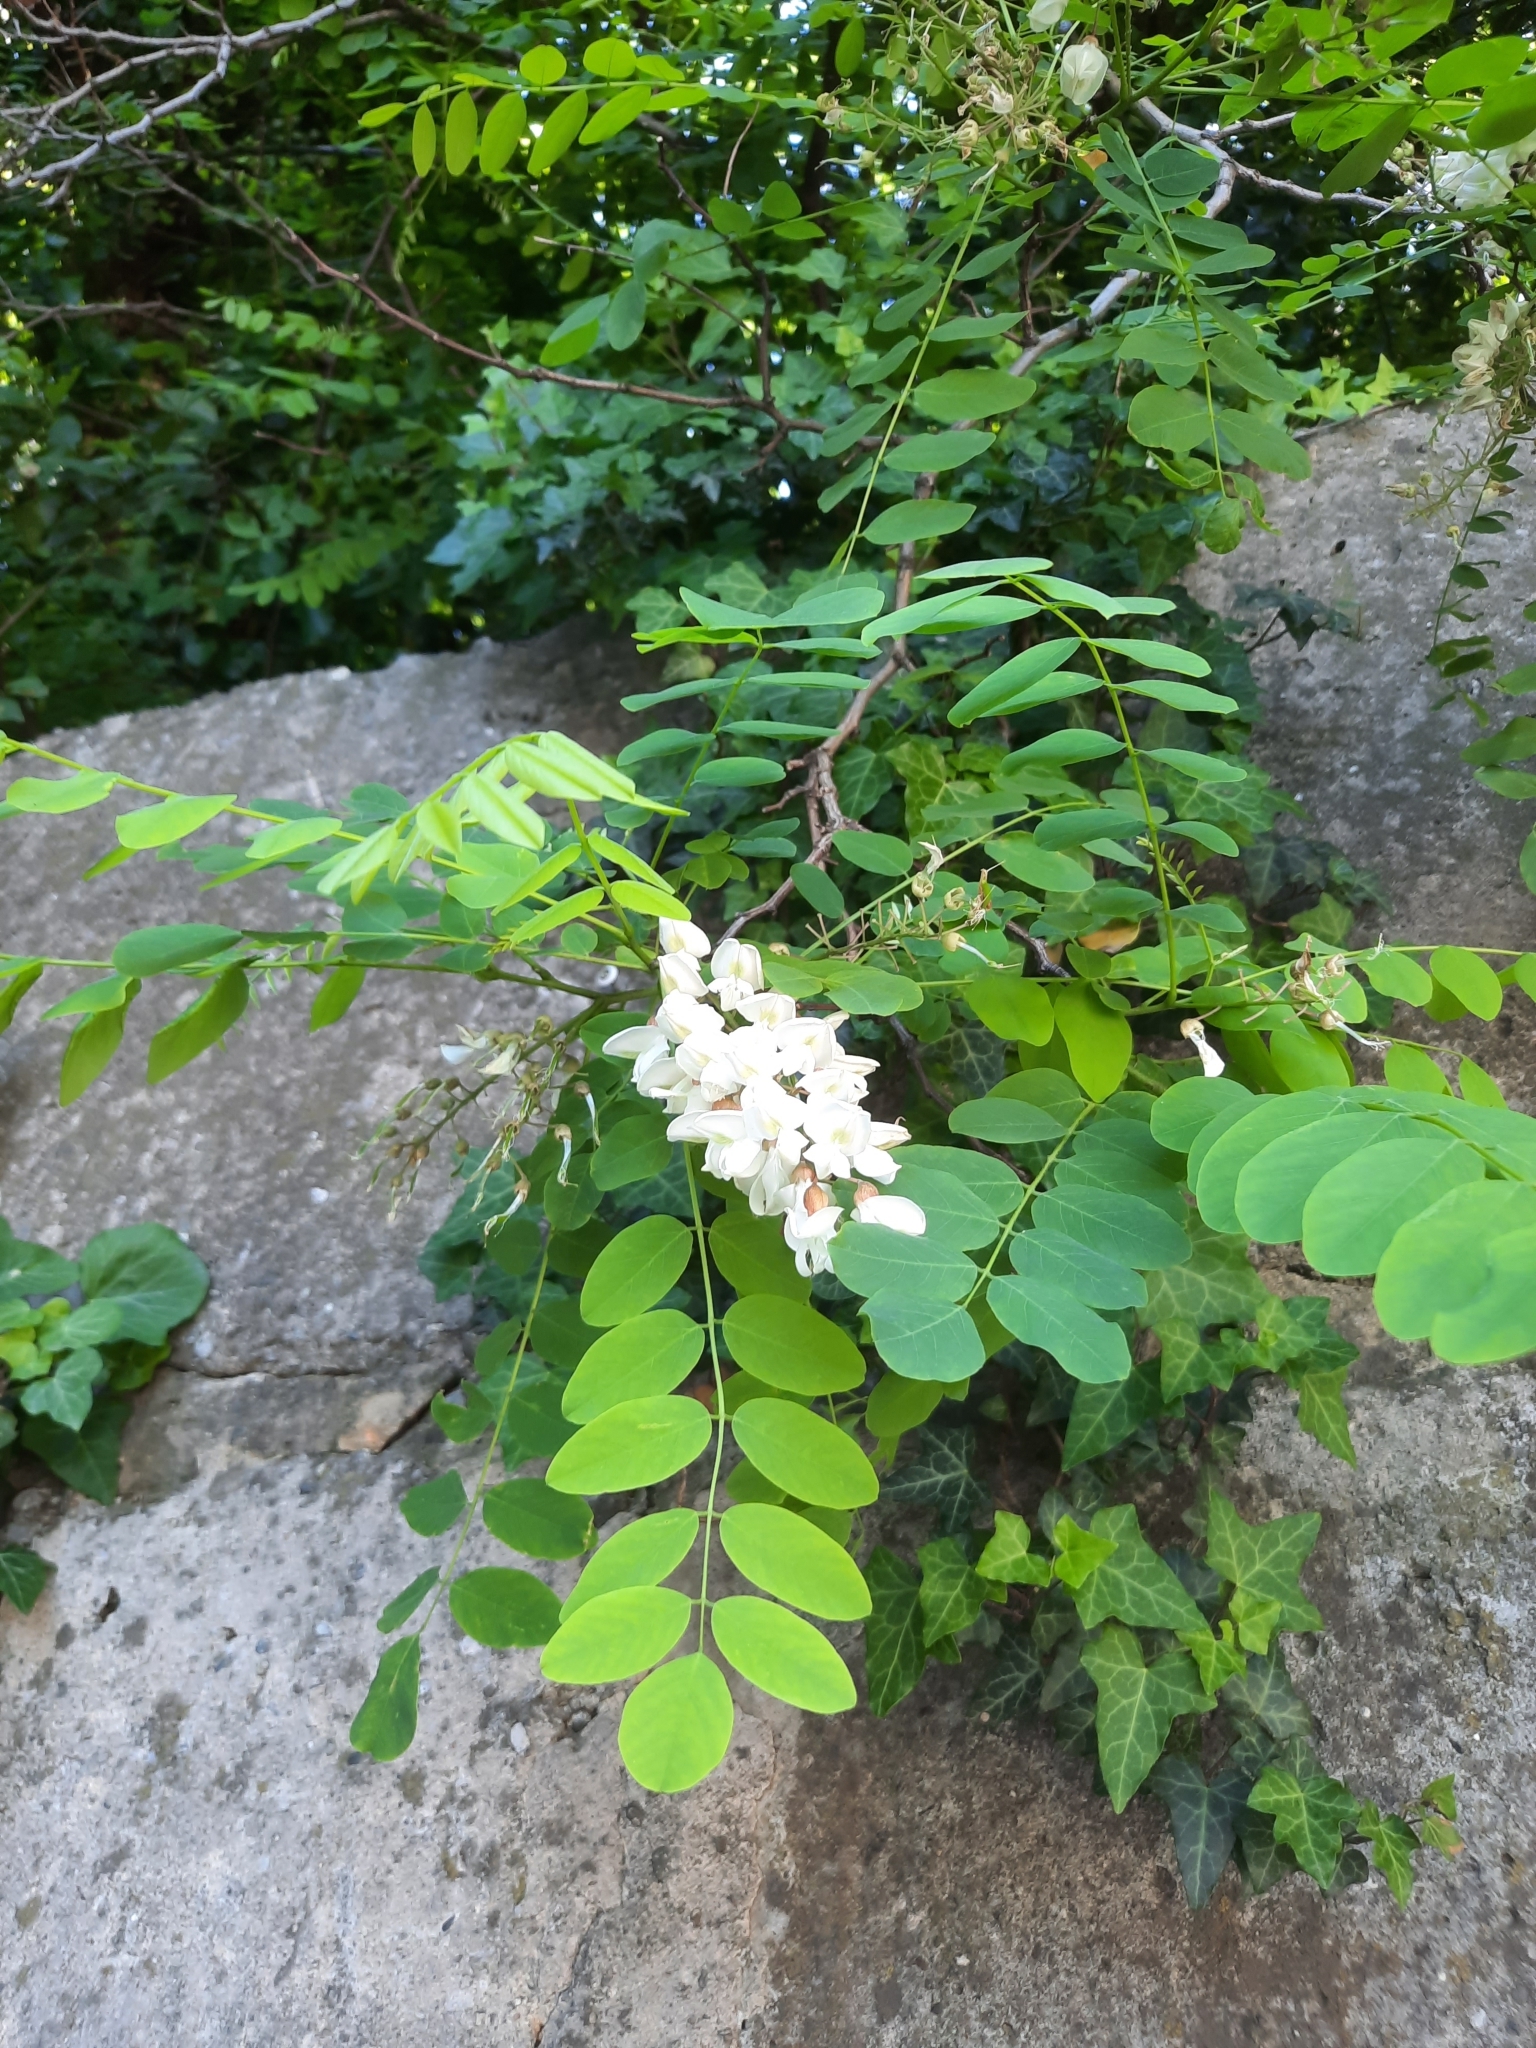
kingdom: Plantae
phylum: Tracheophyta
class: Magnoliopsida
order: Fabales
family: Fabaceae
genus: Robinia
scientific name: Robinia pseudoacacia
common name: Black locust
